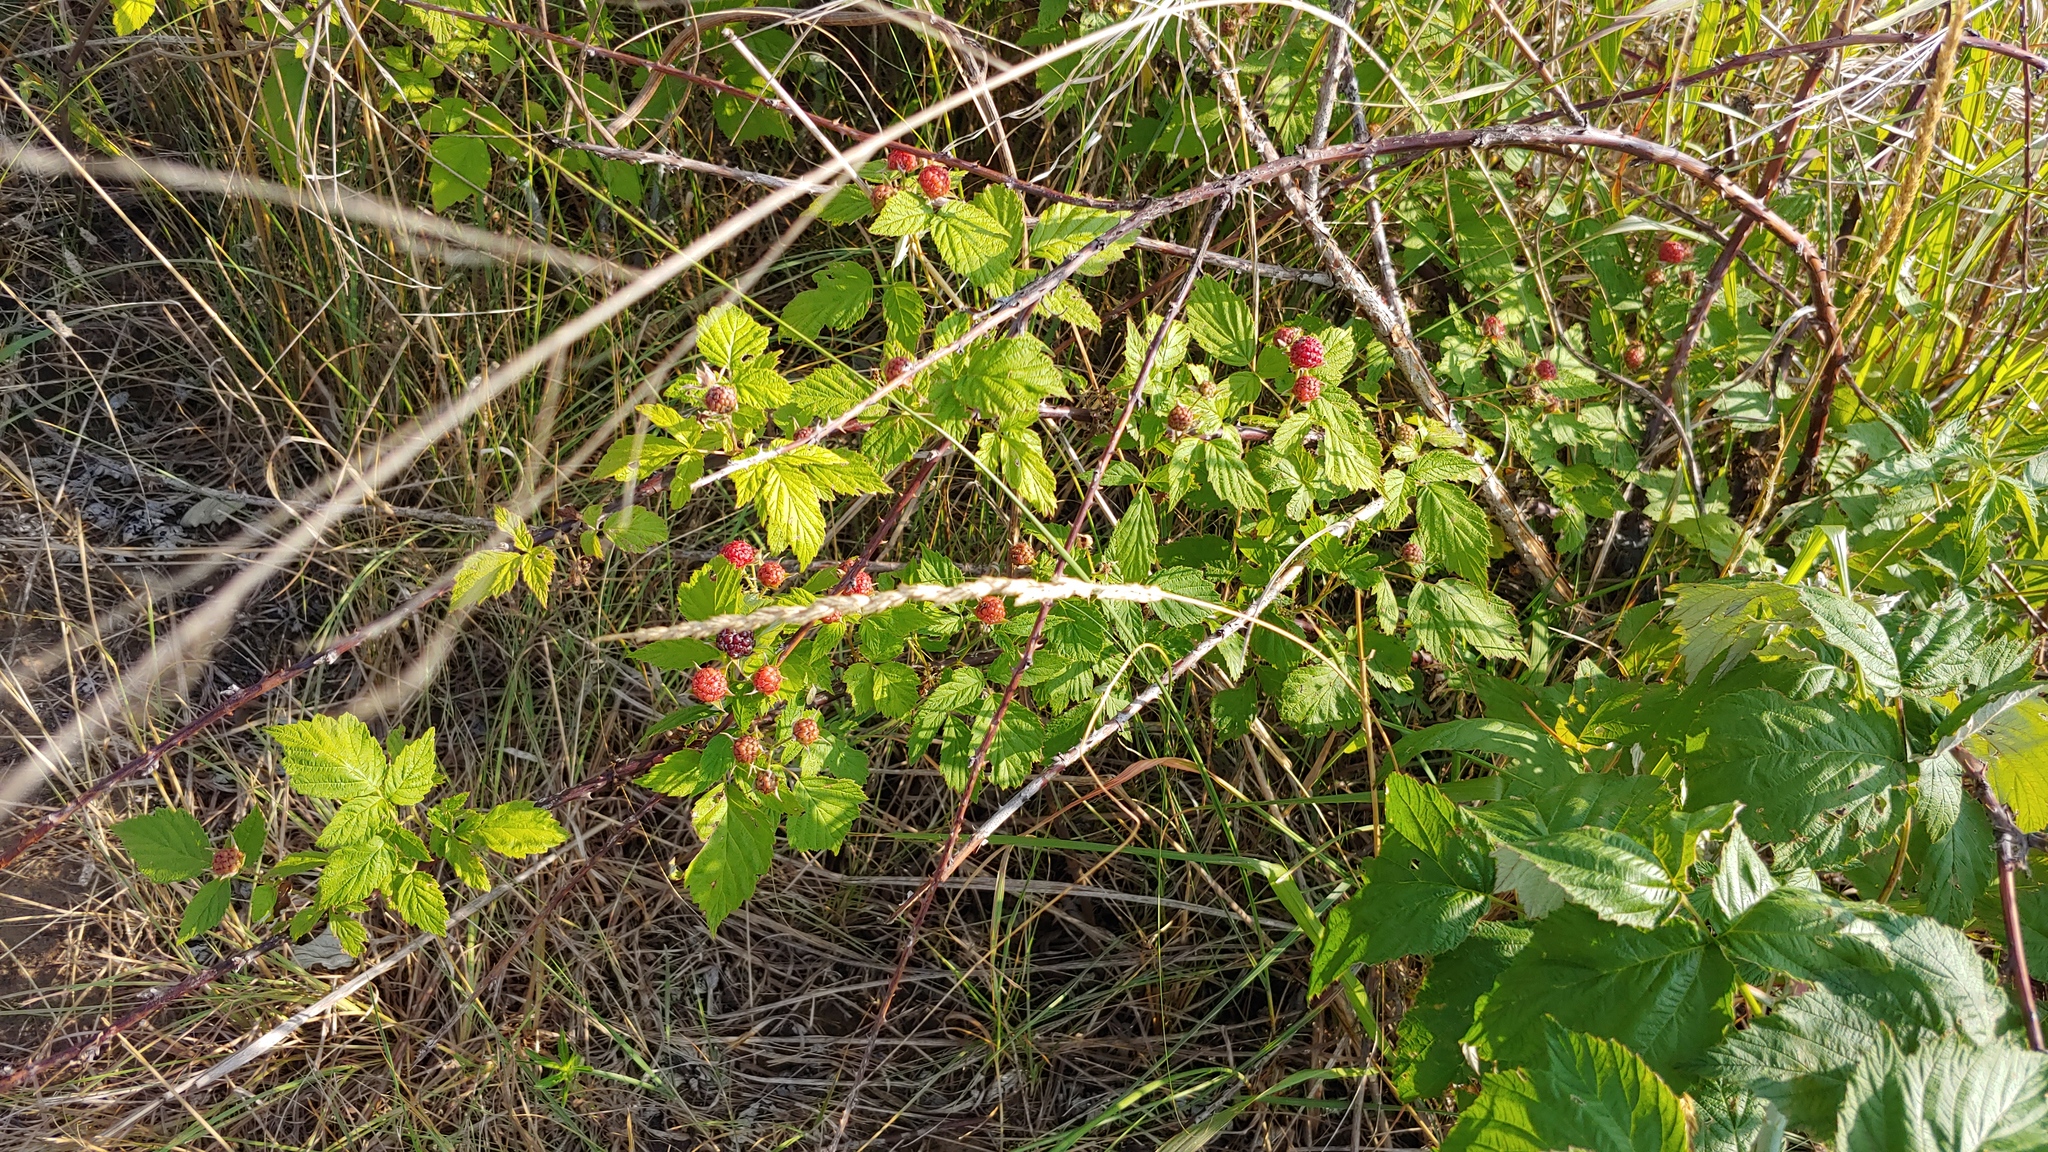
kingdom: Plantae
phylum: Tracheophyta
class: Magnoliopsida
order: Rosales
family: Rosaceae
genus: Rubus
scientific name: Rubus occidentalis
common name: Black raspberry
